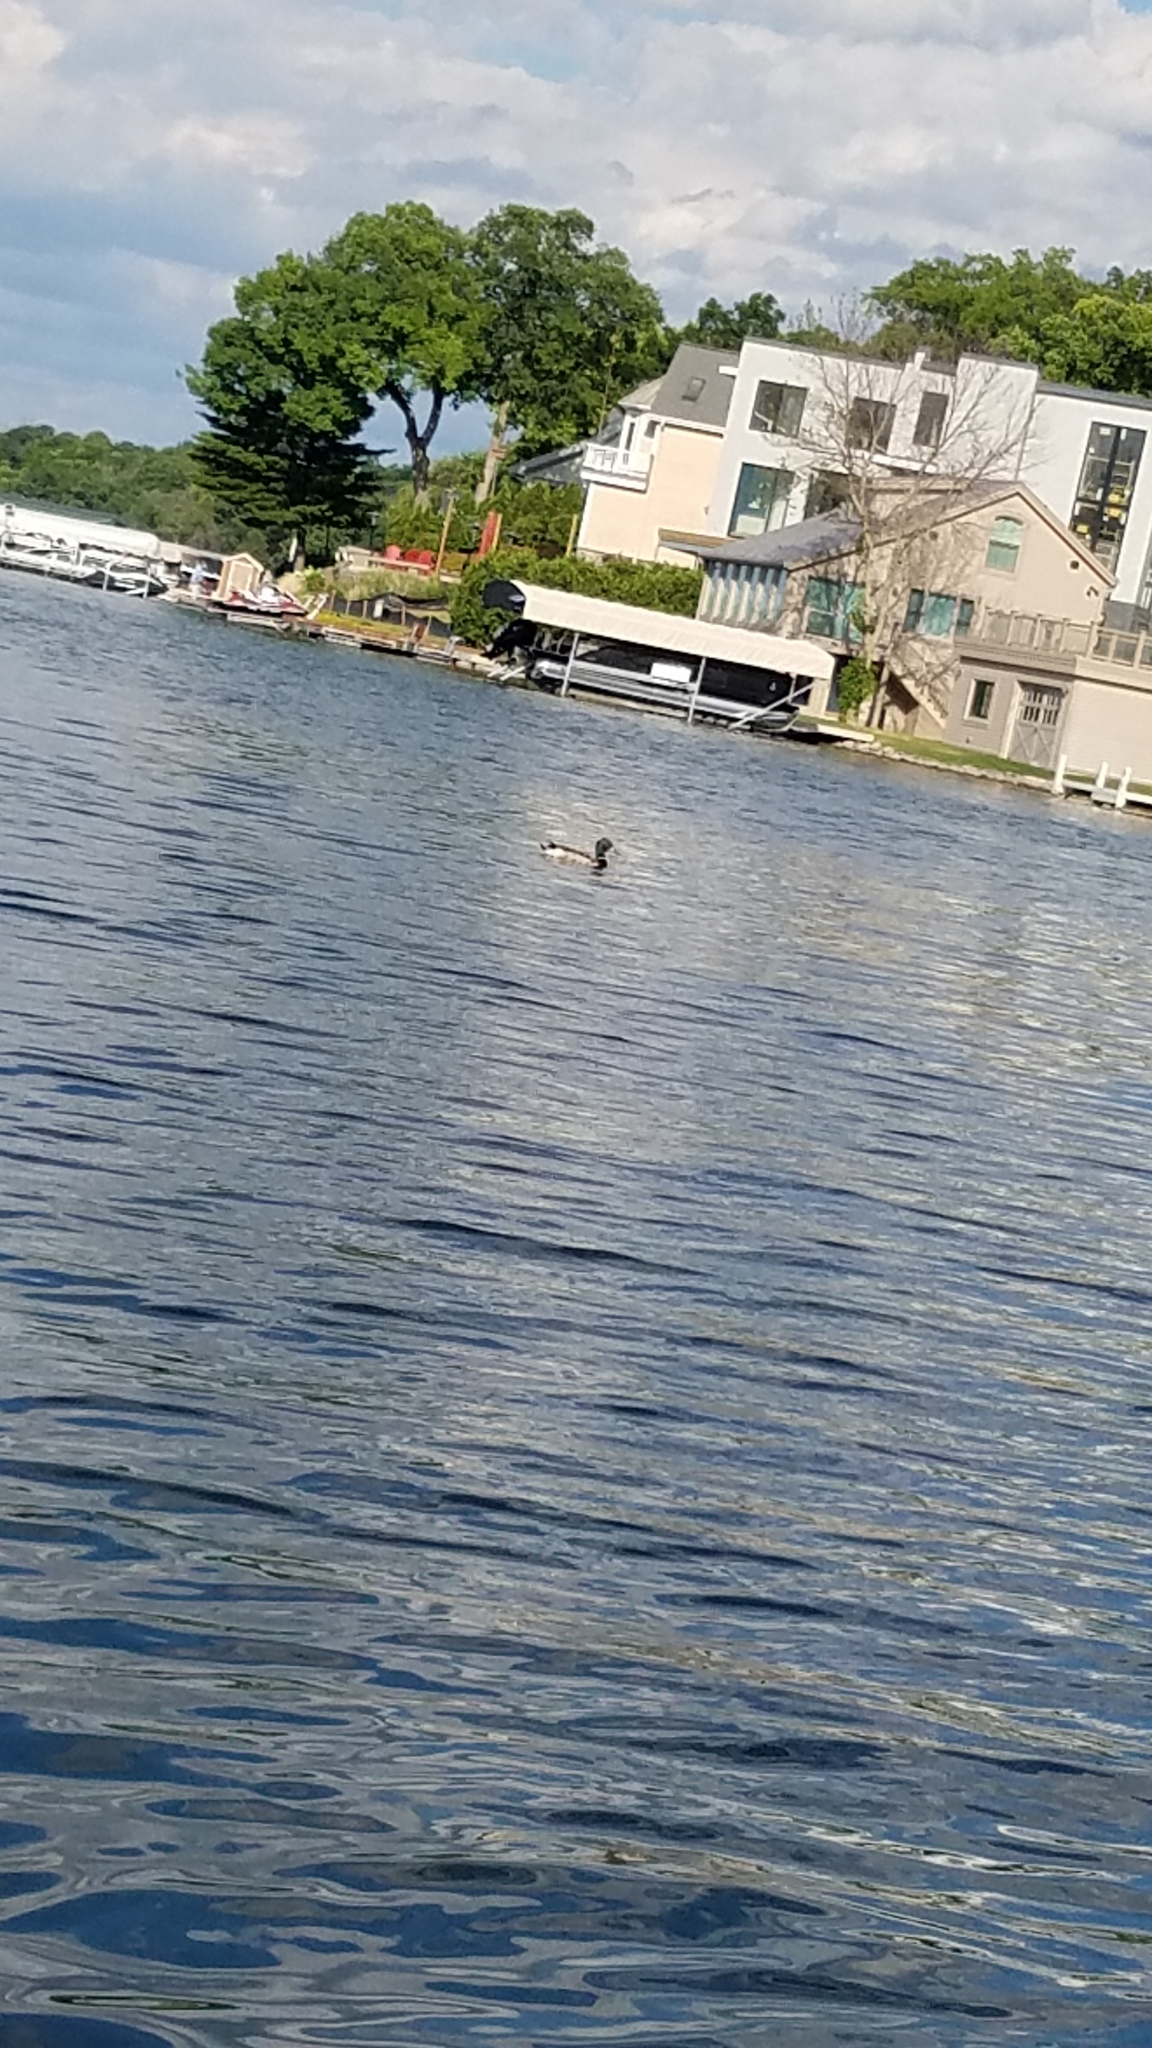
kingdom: Animalia
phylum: Chordata
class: Aves
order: Anseriformes
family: Anatidae
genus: Anas
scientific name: Anas platyrhynchos
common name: Mallard
